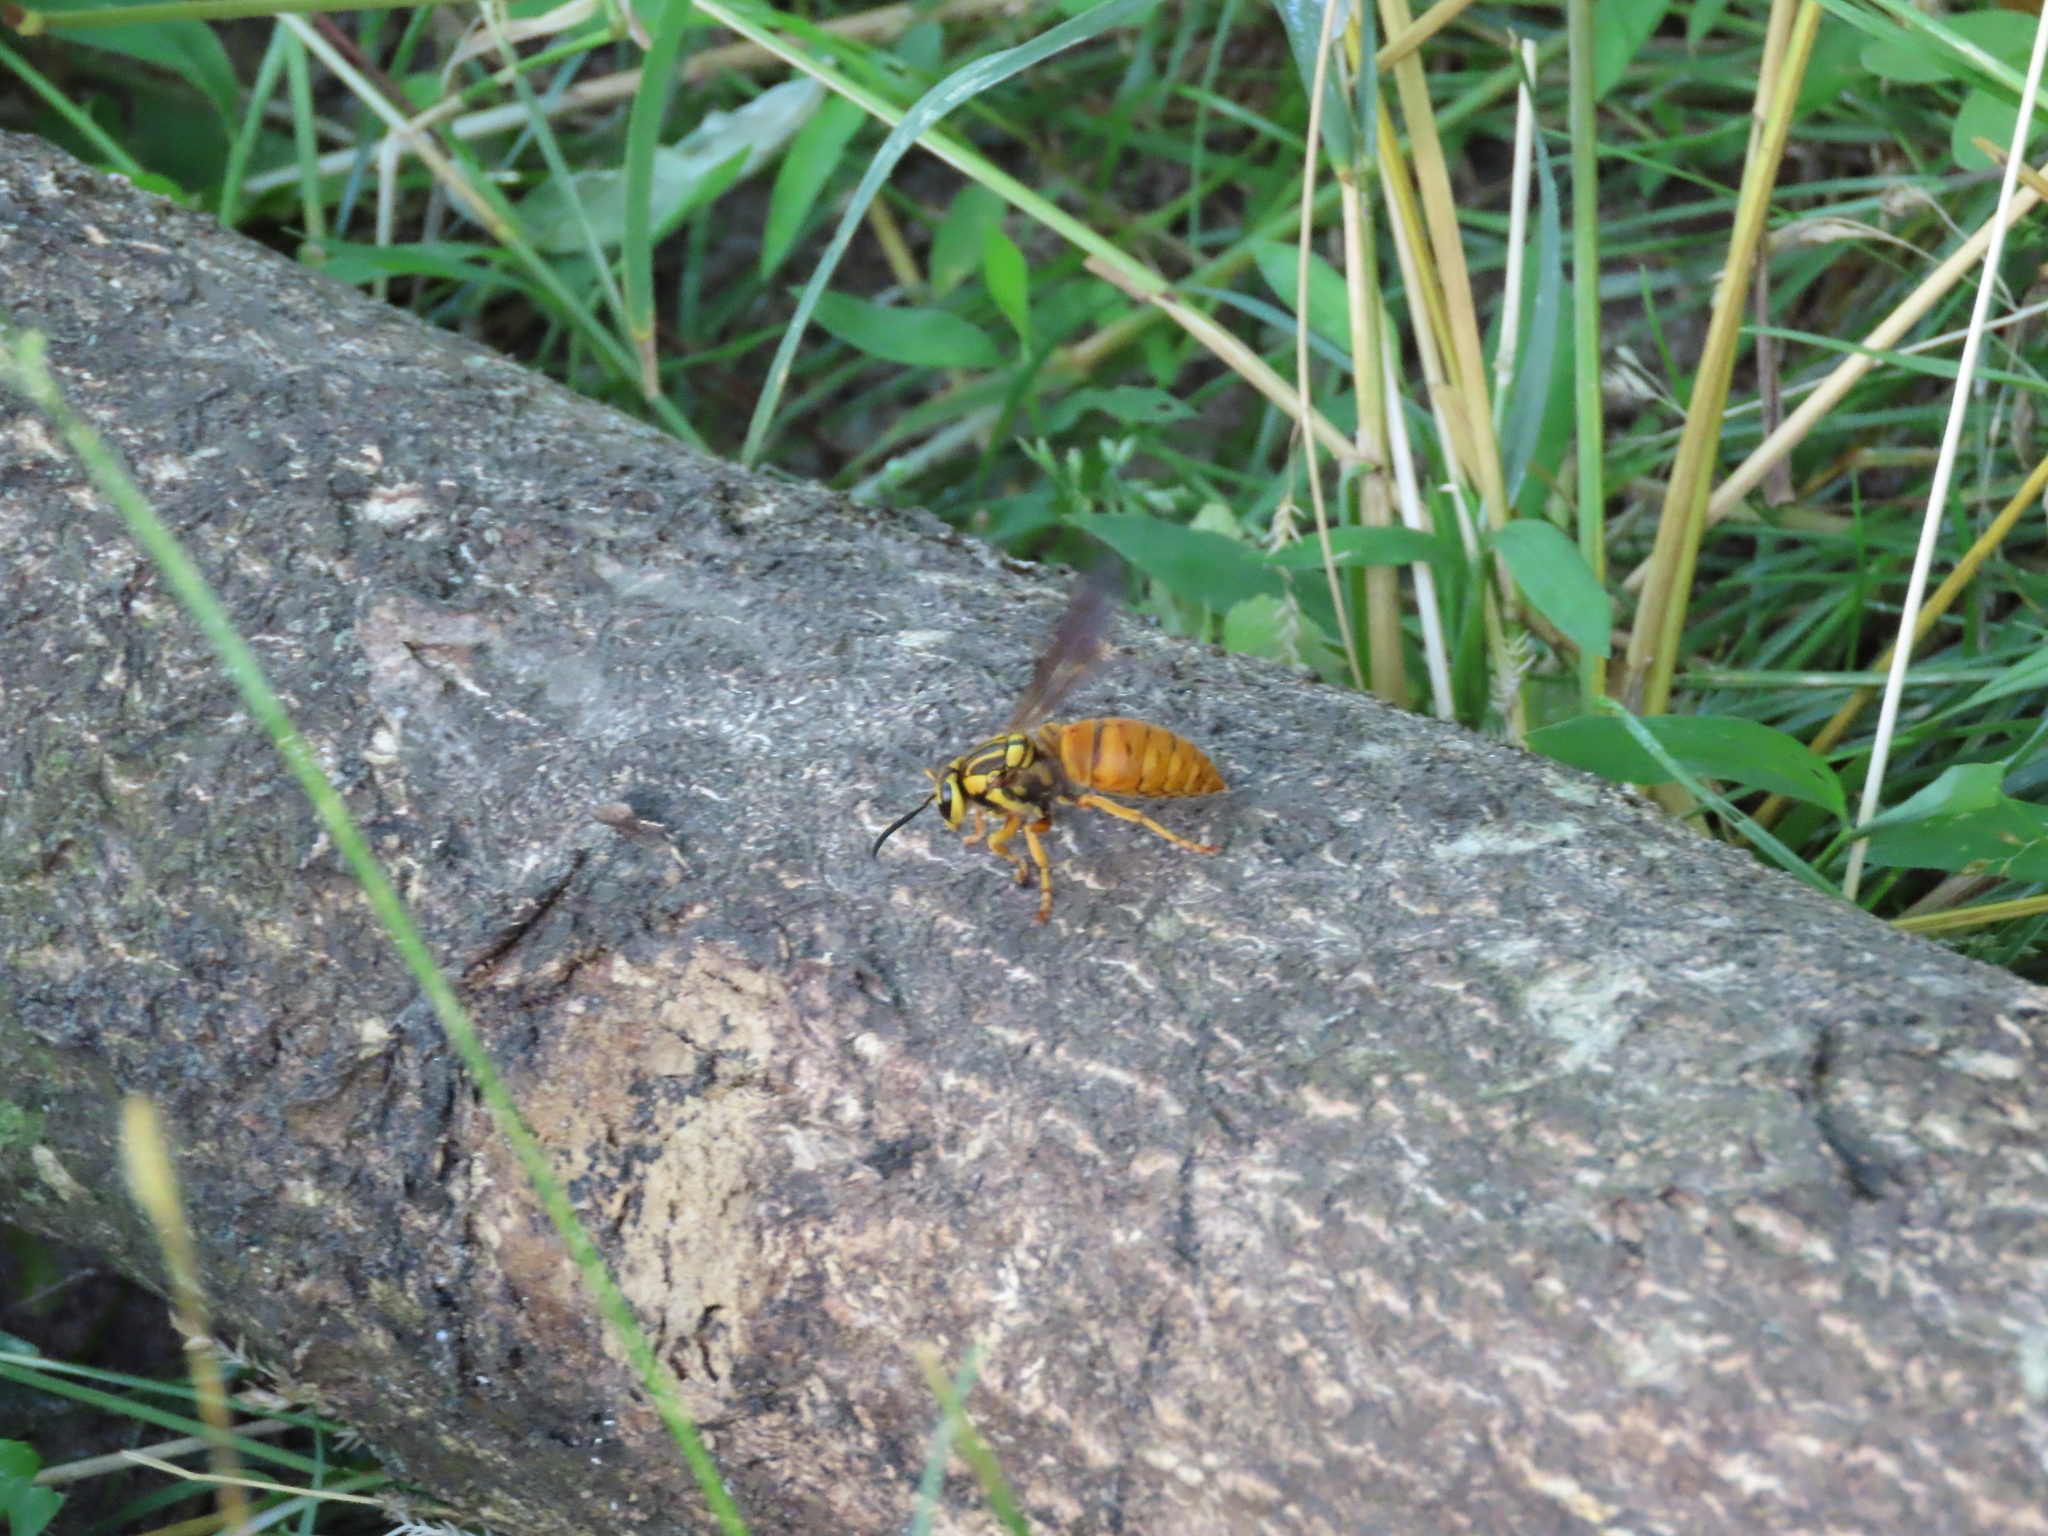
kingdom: Animalia
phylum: Arthropoda
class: Insecta
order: Hymenoptera
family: Vespidae
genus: Vespula
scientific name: Vespula squamosa
